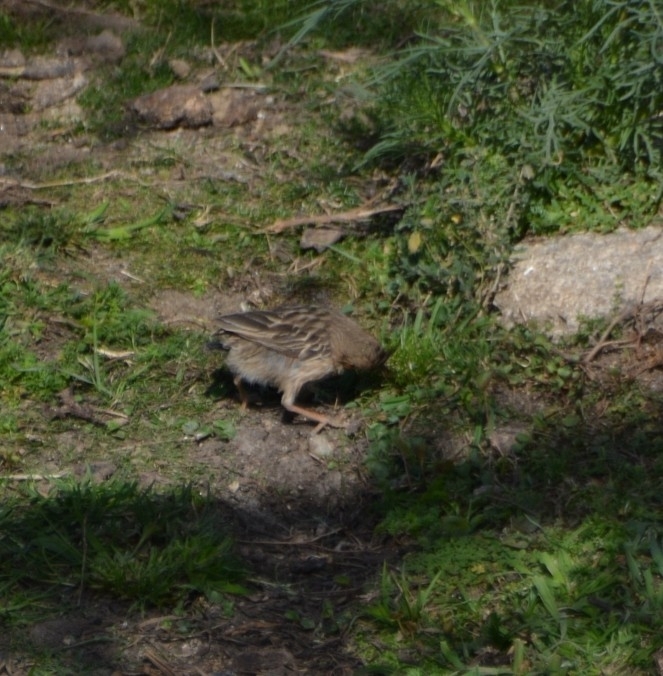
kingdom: Animalia
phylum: Chordata
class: Aves
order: Passeriformes
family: Furnariidae
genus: Coryphistera
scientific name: Coryphistera alaudina
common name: Lark-like brushrunner
